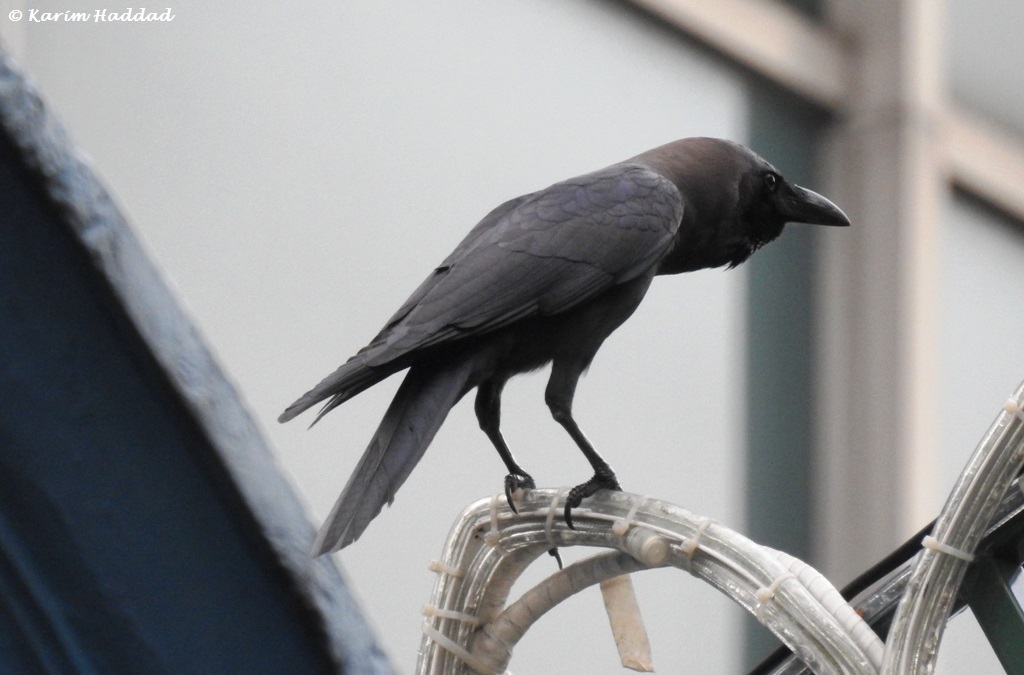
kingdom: Animalia
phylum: Chordata
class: Aves
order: Passeriformes
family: Corvidae
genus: Corvus
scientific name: Corvus splendens
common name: House crow
